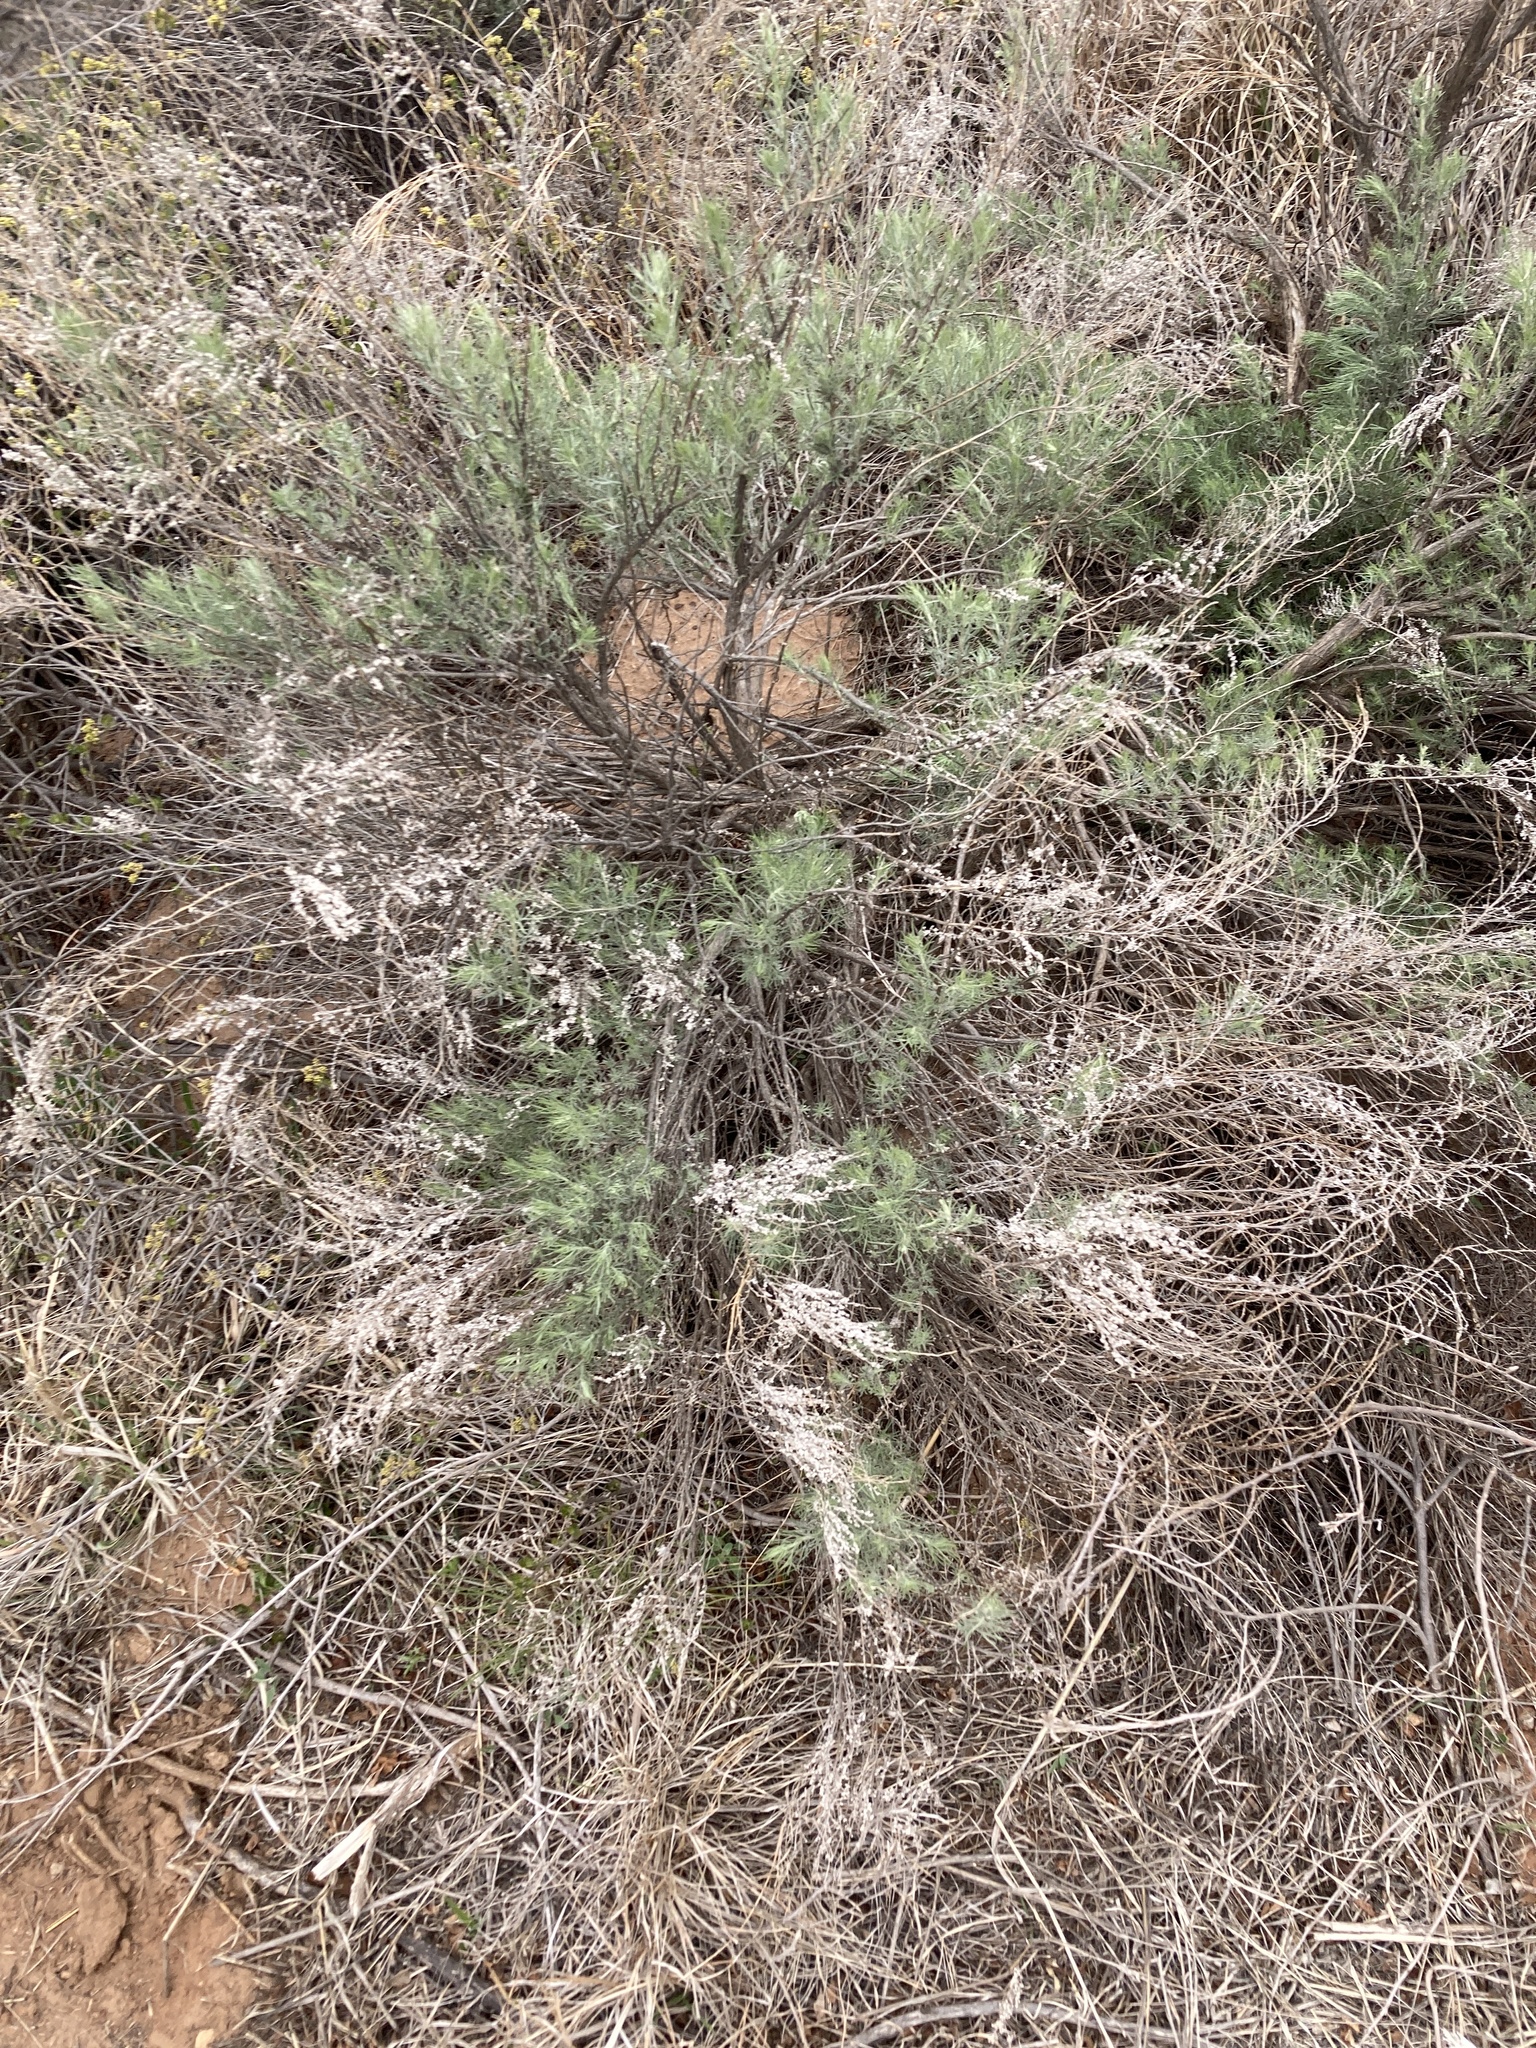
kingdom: Plantae
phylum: Tracheophyta
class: Magnoliopsida
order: Asterales
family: Asteraceae
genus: Artemisia
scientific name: Artemisia filifolia
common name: Sand-sage
